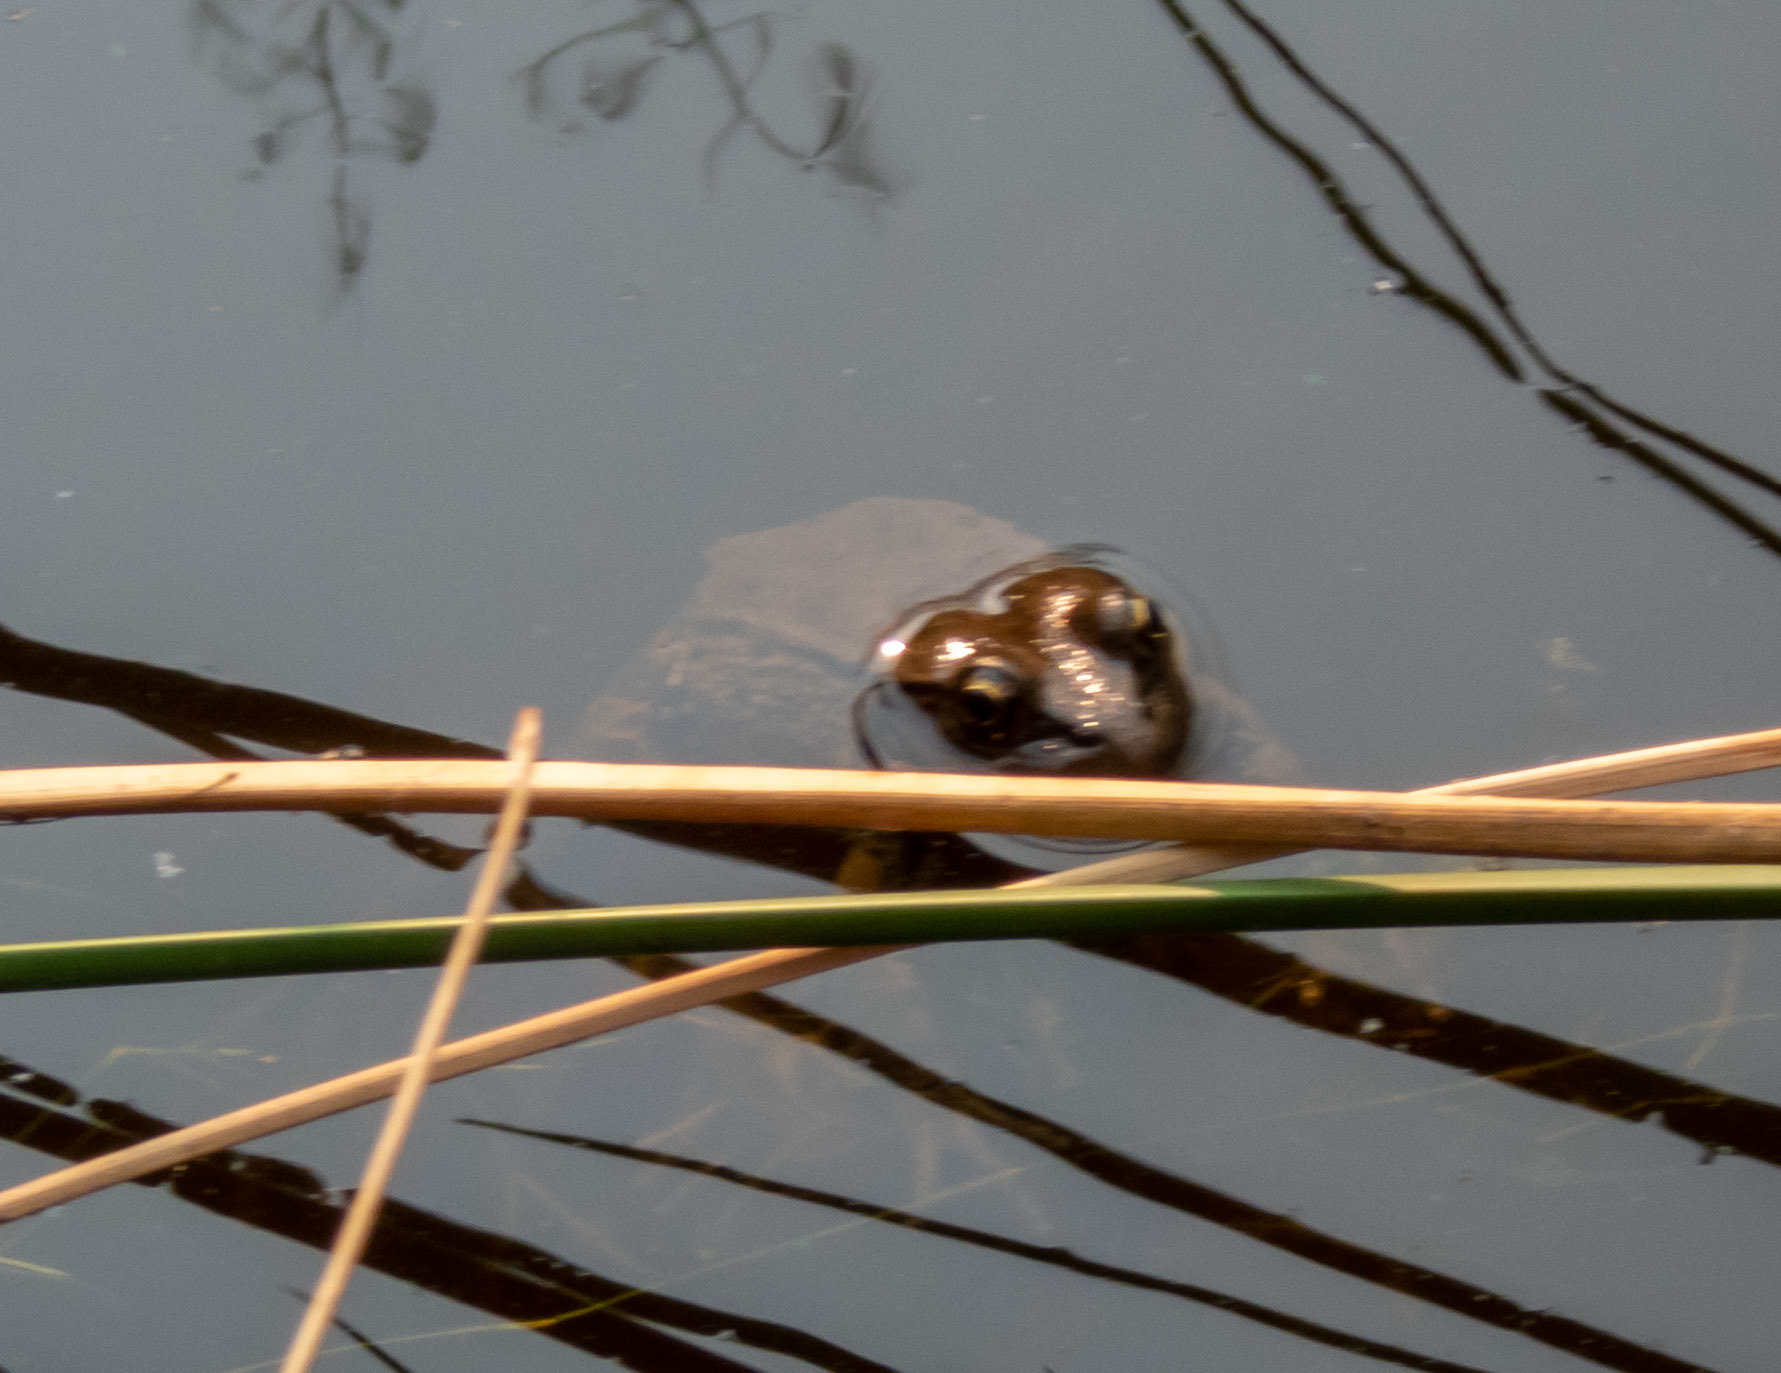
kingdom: Animalia
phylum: Chordata
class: Amphibia
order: Anura
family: Ranidae
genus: Rana
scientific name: Rana draytonii
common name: California red-legged frog
